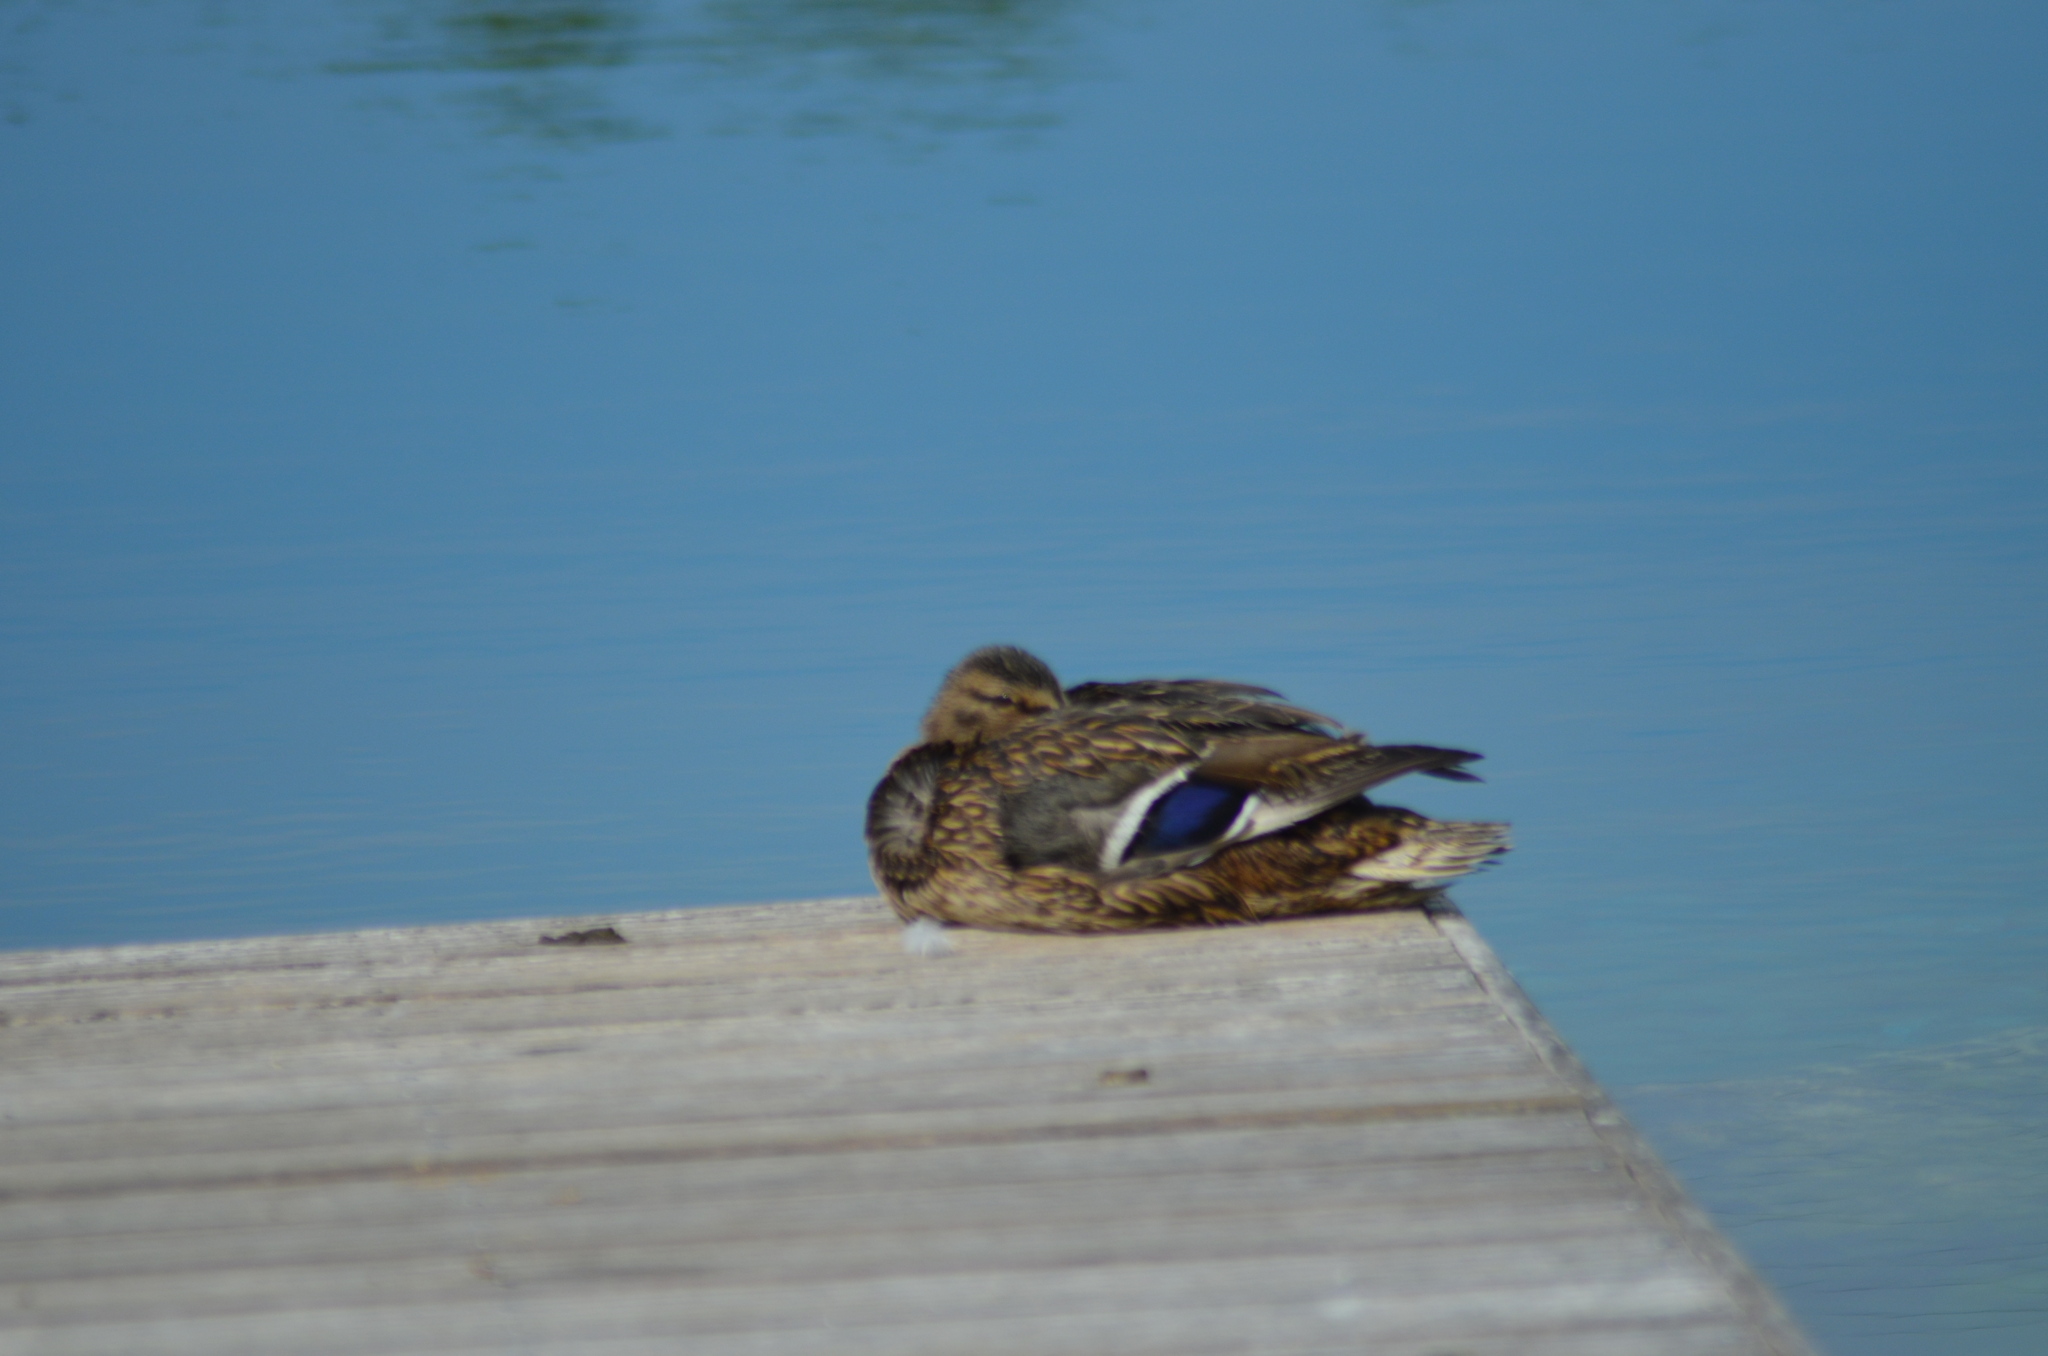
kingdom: Animalia
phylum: Chordata
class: Aves
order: Anseriformes
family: Anatidae
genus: Anas
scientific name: Anas platyrhynchos
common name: Mallard
